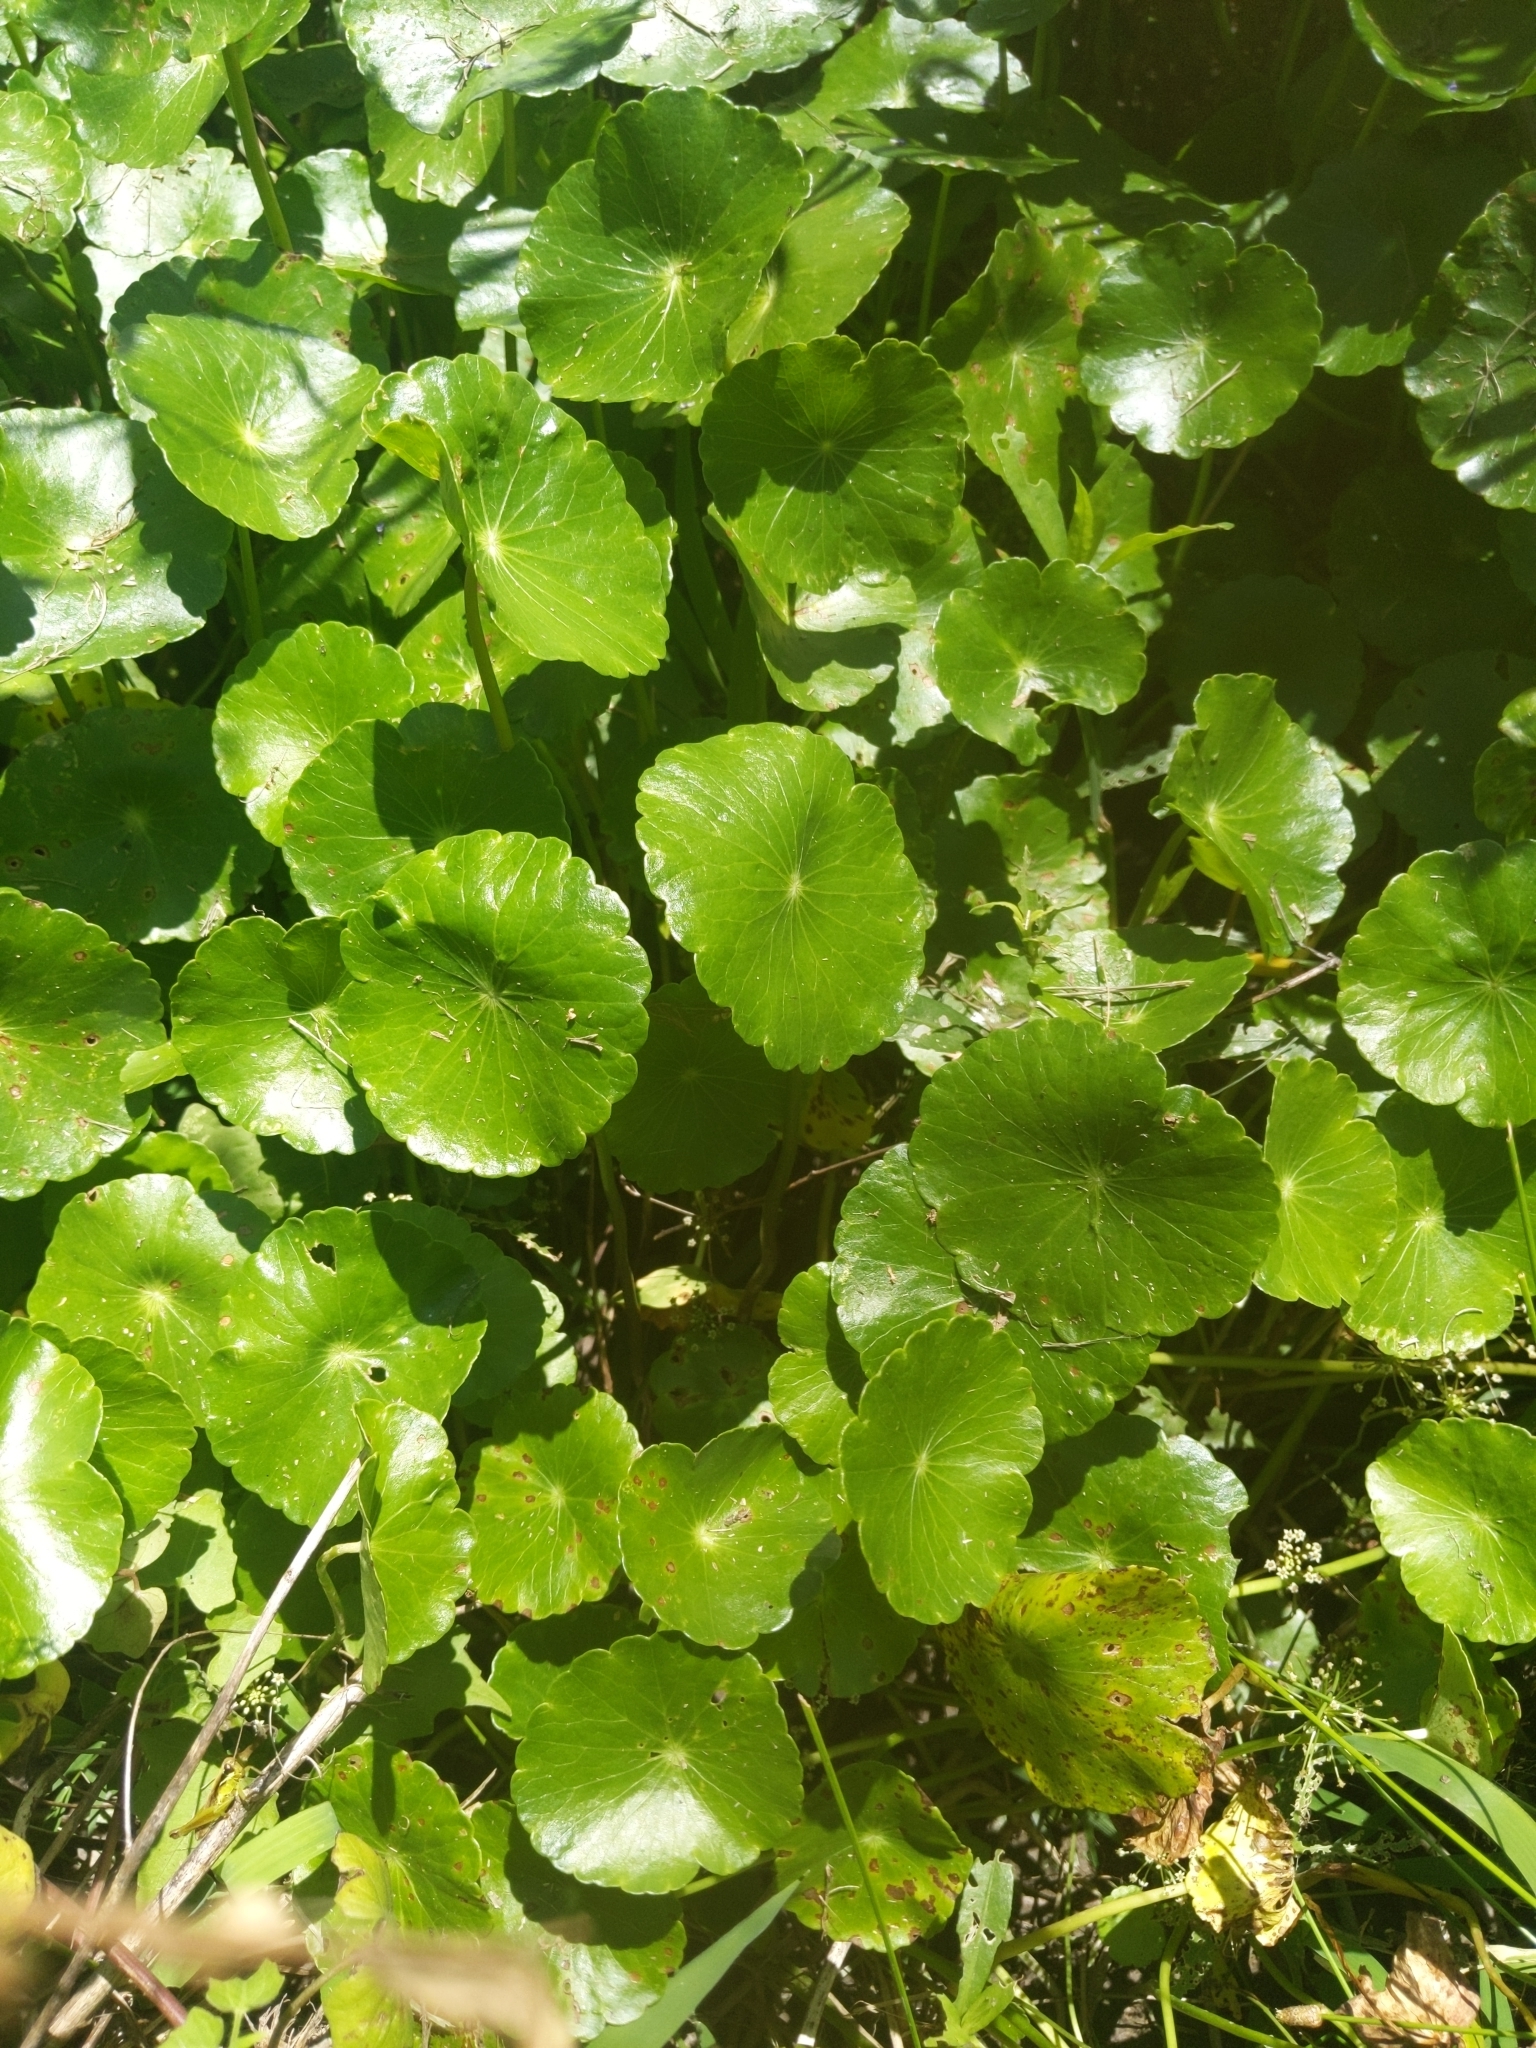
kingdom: Plantae
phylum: Tracheophyta
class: Magnoliopsida
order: Apiales
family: Araliaceae
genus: Hydrocotyle
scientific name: Hydrocotyle umbellata
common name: Water pennywort
